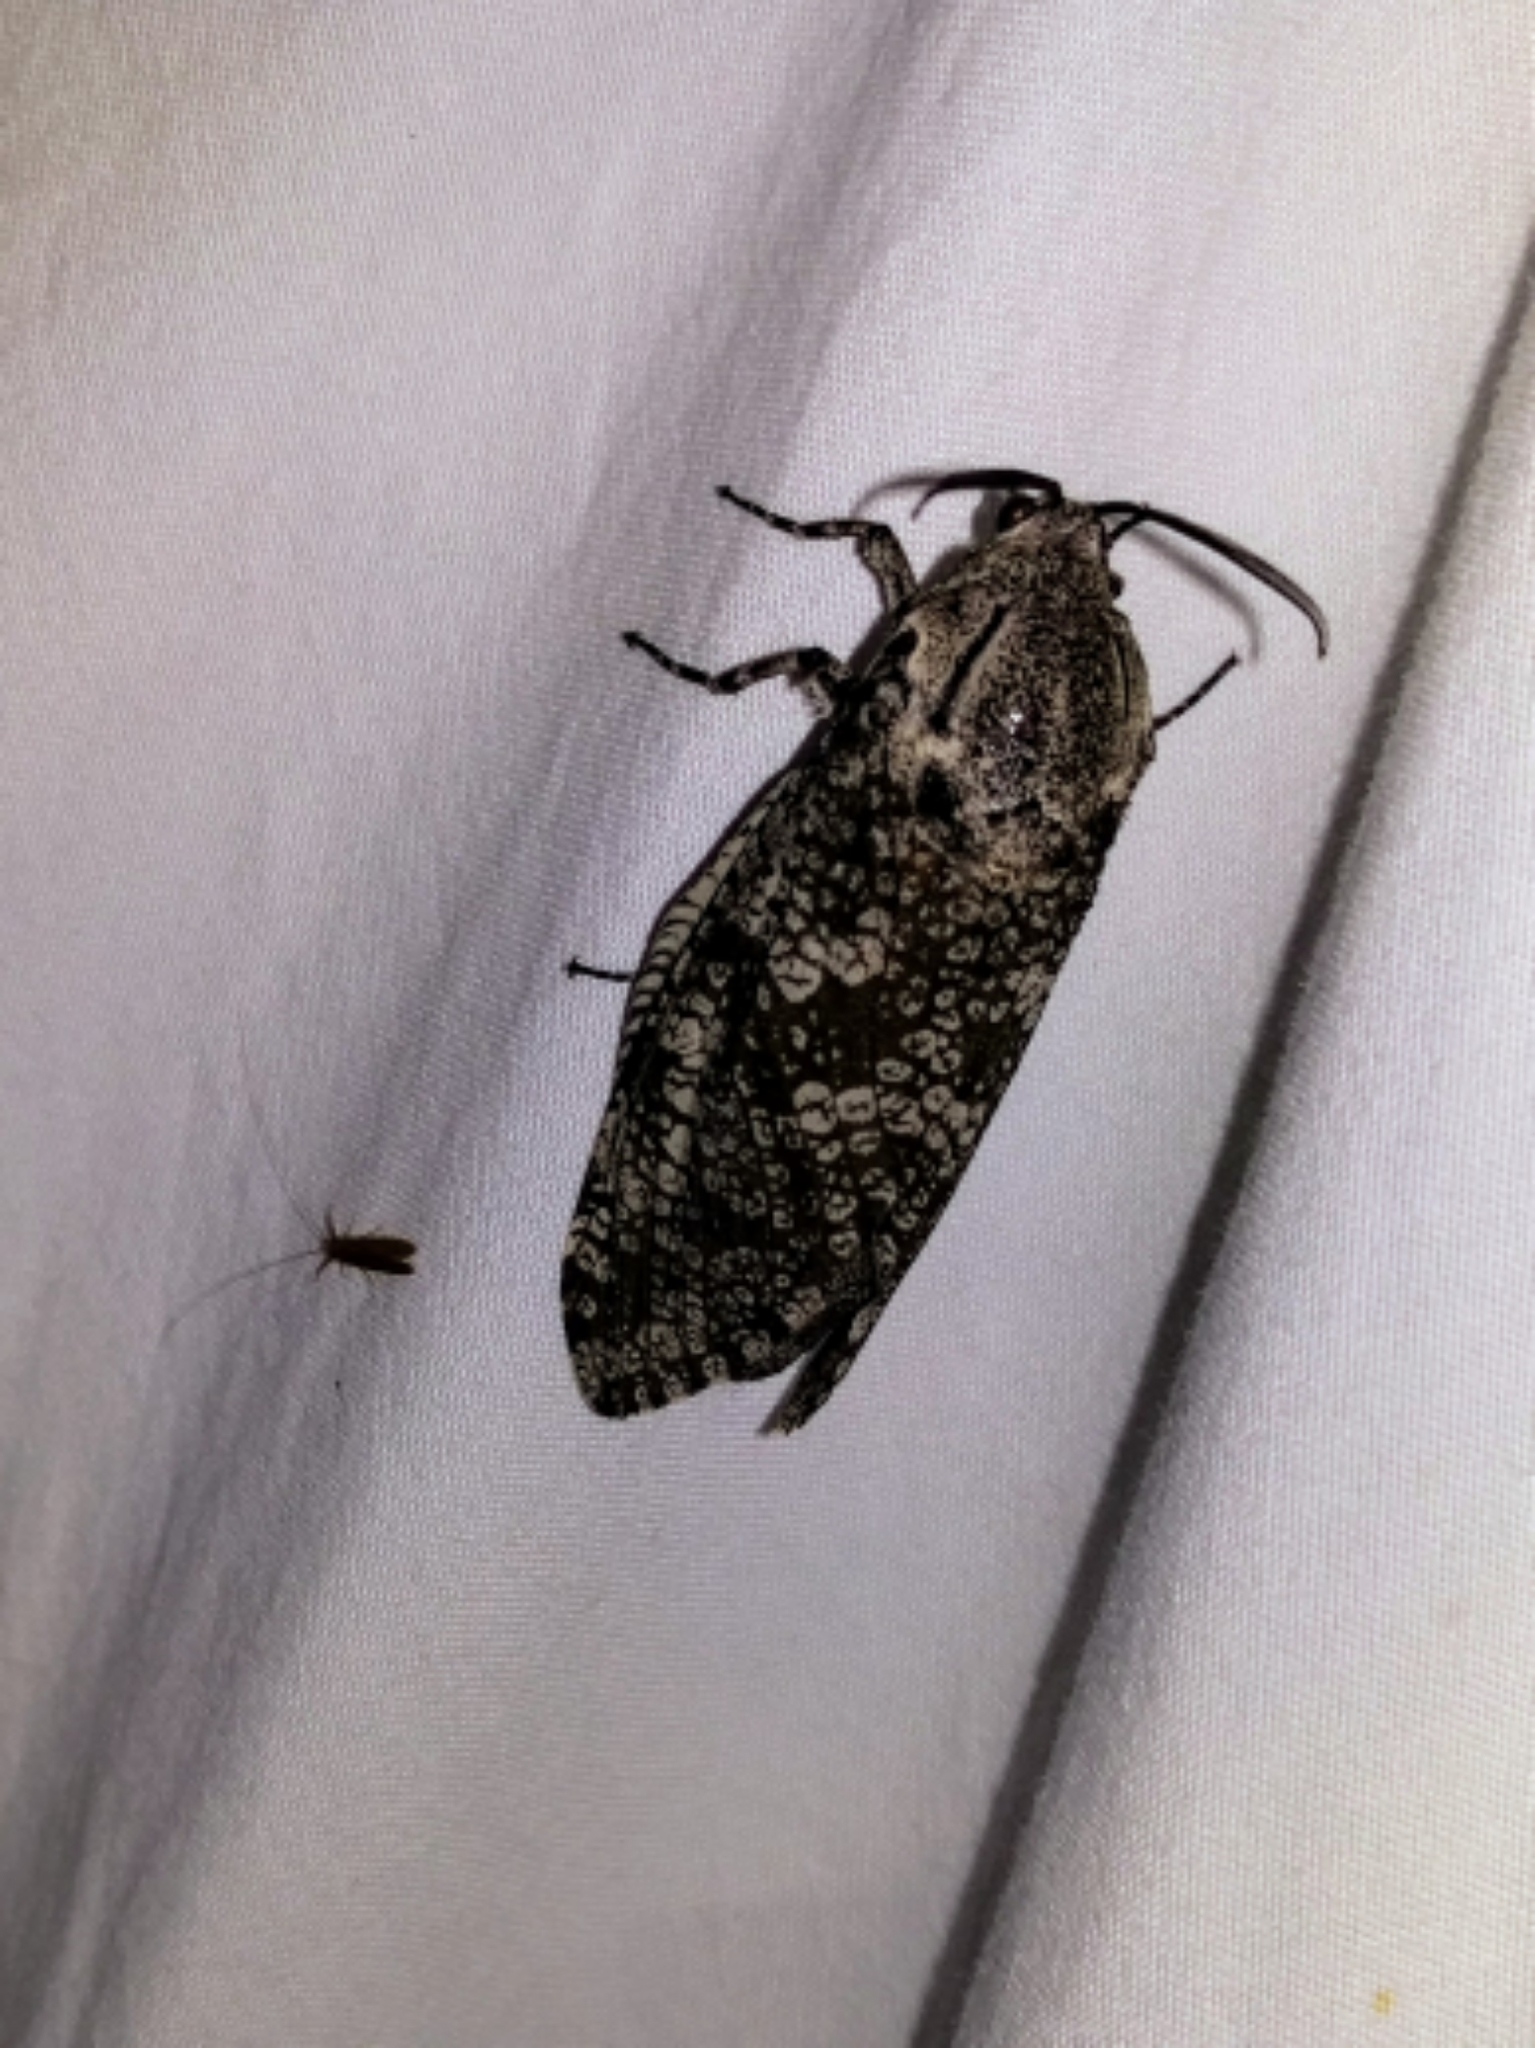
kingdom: Animalia
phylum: Arthropoda
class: Insecta
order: Lepidoptera
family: Cossidae
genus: Prionoxystus
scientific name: Prionoxystus robiniae
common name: Carpenterworm
